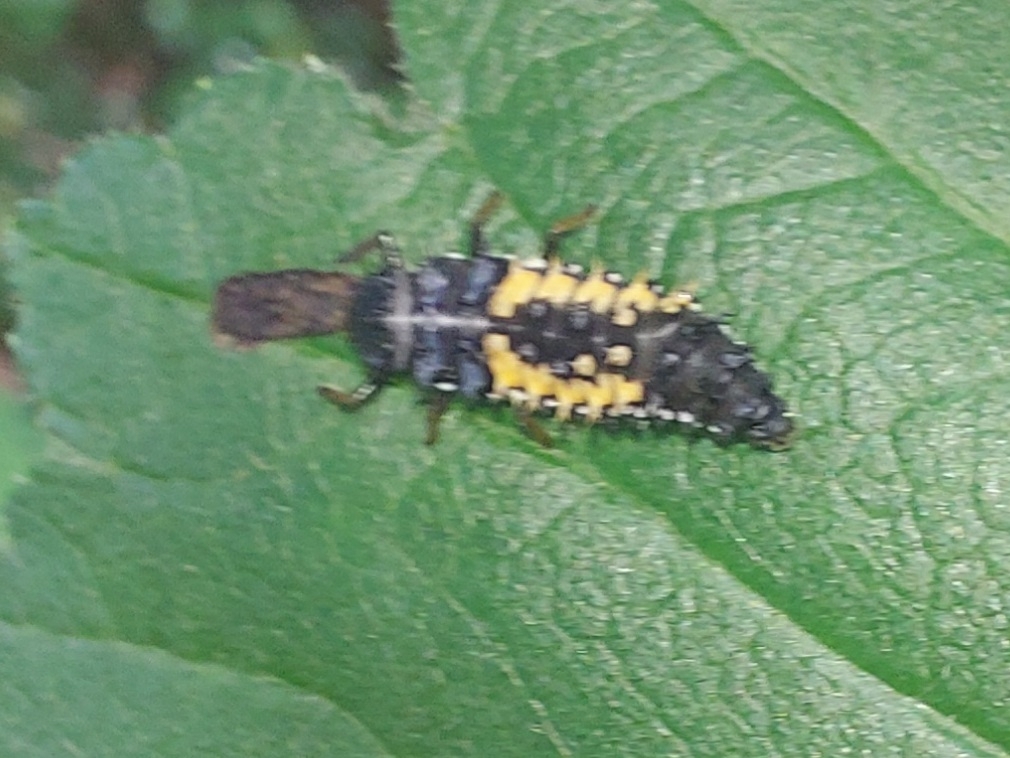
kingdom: Animalia
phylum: Arthropoda
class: Insecta
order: Coleoptera
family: Coccinellidae
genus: Harmonia
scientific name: Harmonia axyridis
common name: Harlequin ladybird
